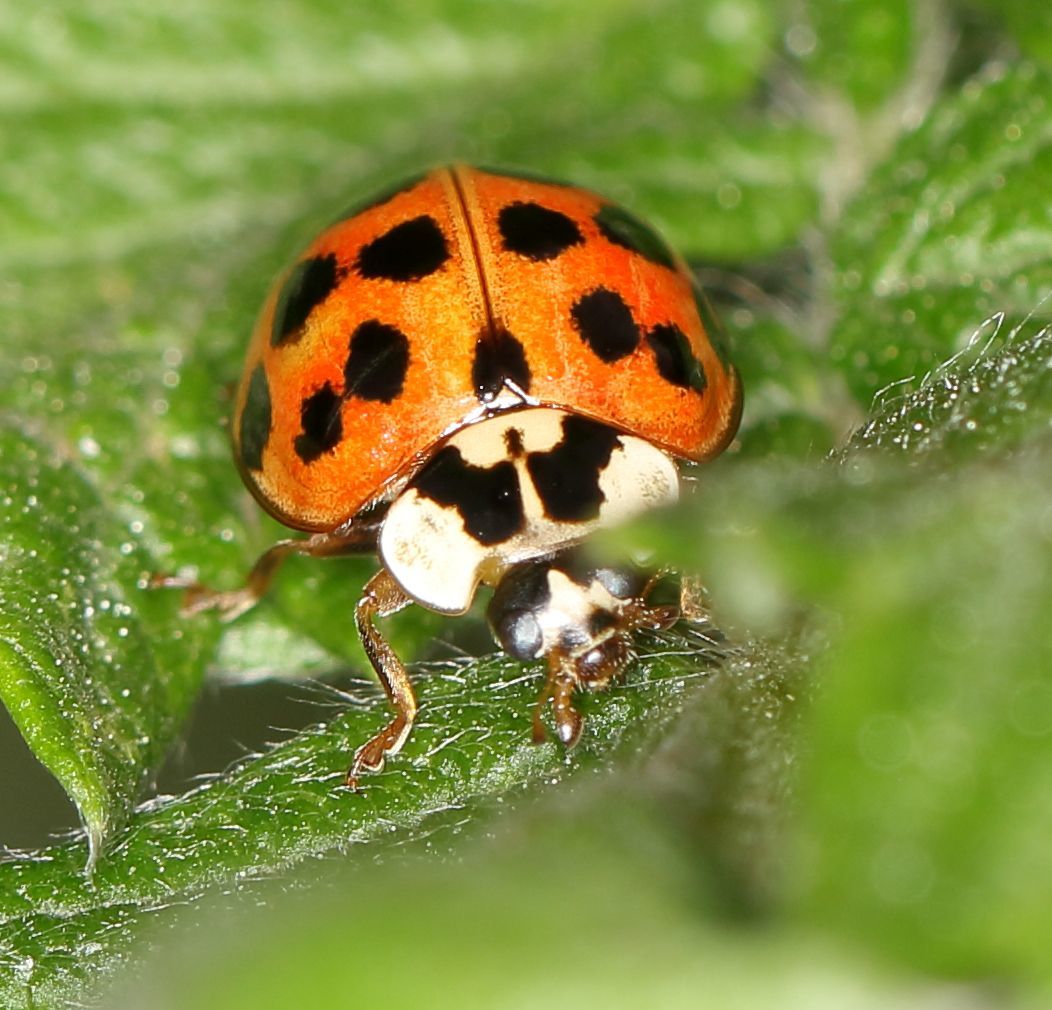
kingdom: Animalia
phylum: Arthropoda
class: Insecta
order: Coleoptera
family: Coccinellidae
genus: Harmonia
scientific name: Harmonia axyridis
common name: Harlequin ladybird
